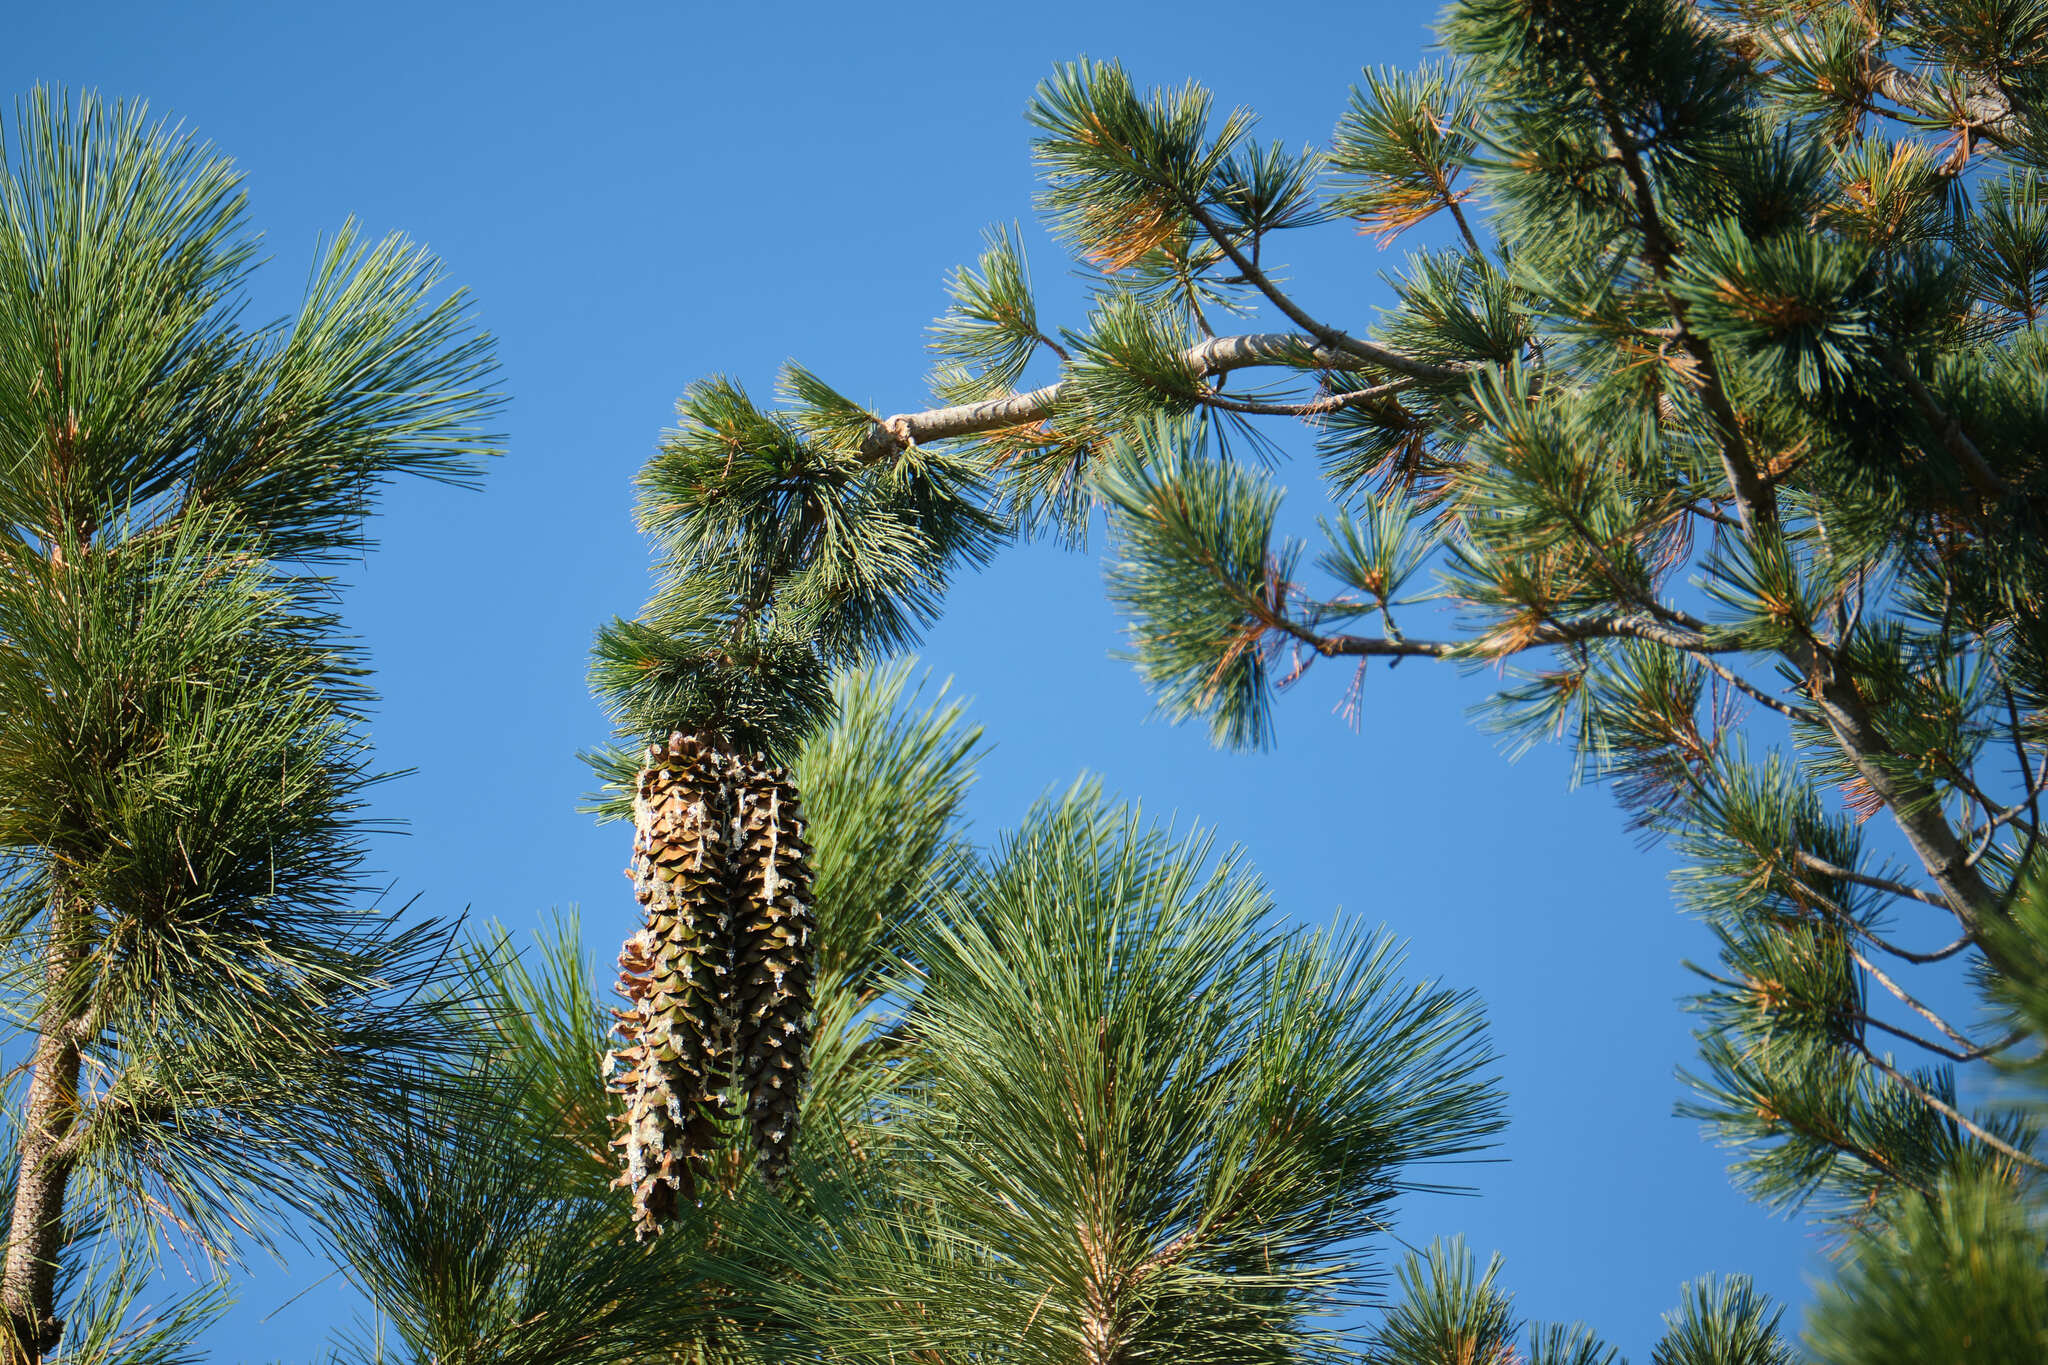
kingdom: Plantae
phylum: Tracheophyta
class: Pinopsida
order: Pinales
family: Pinaceae
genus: Pinus
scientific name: Pinus lambertiana
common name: Sugar pine
